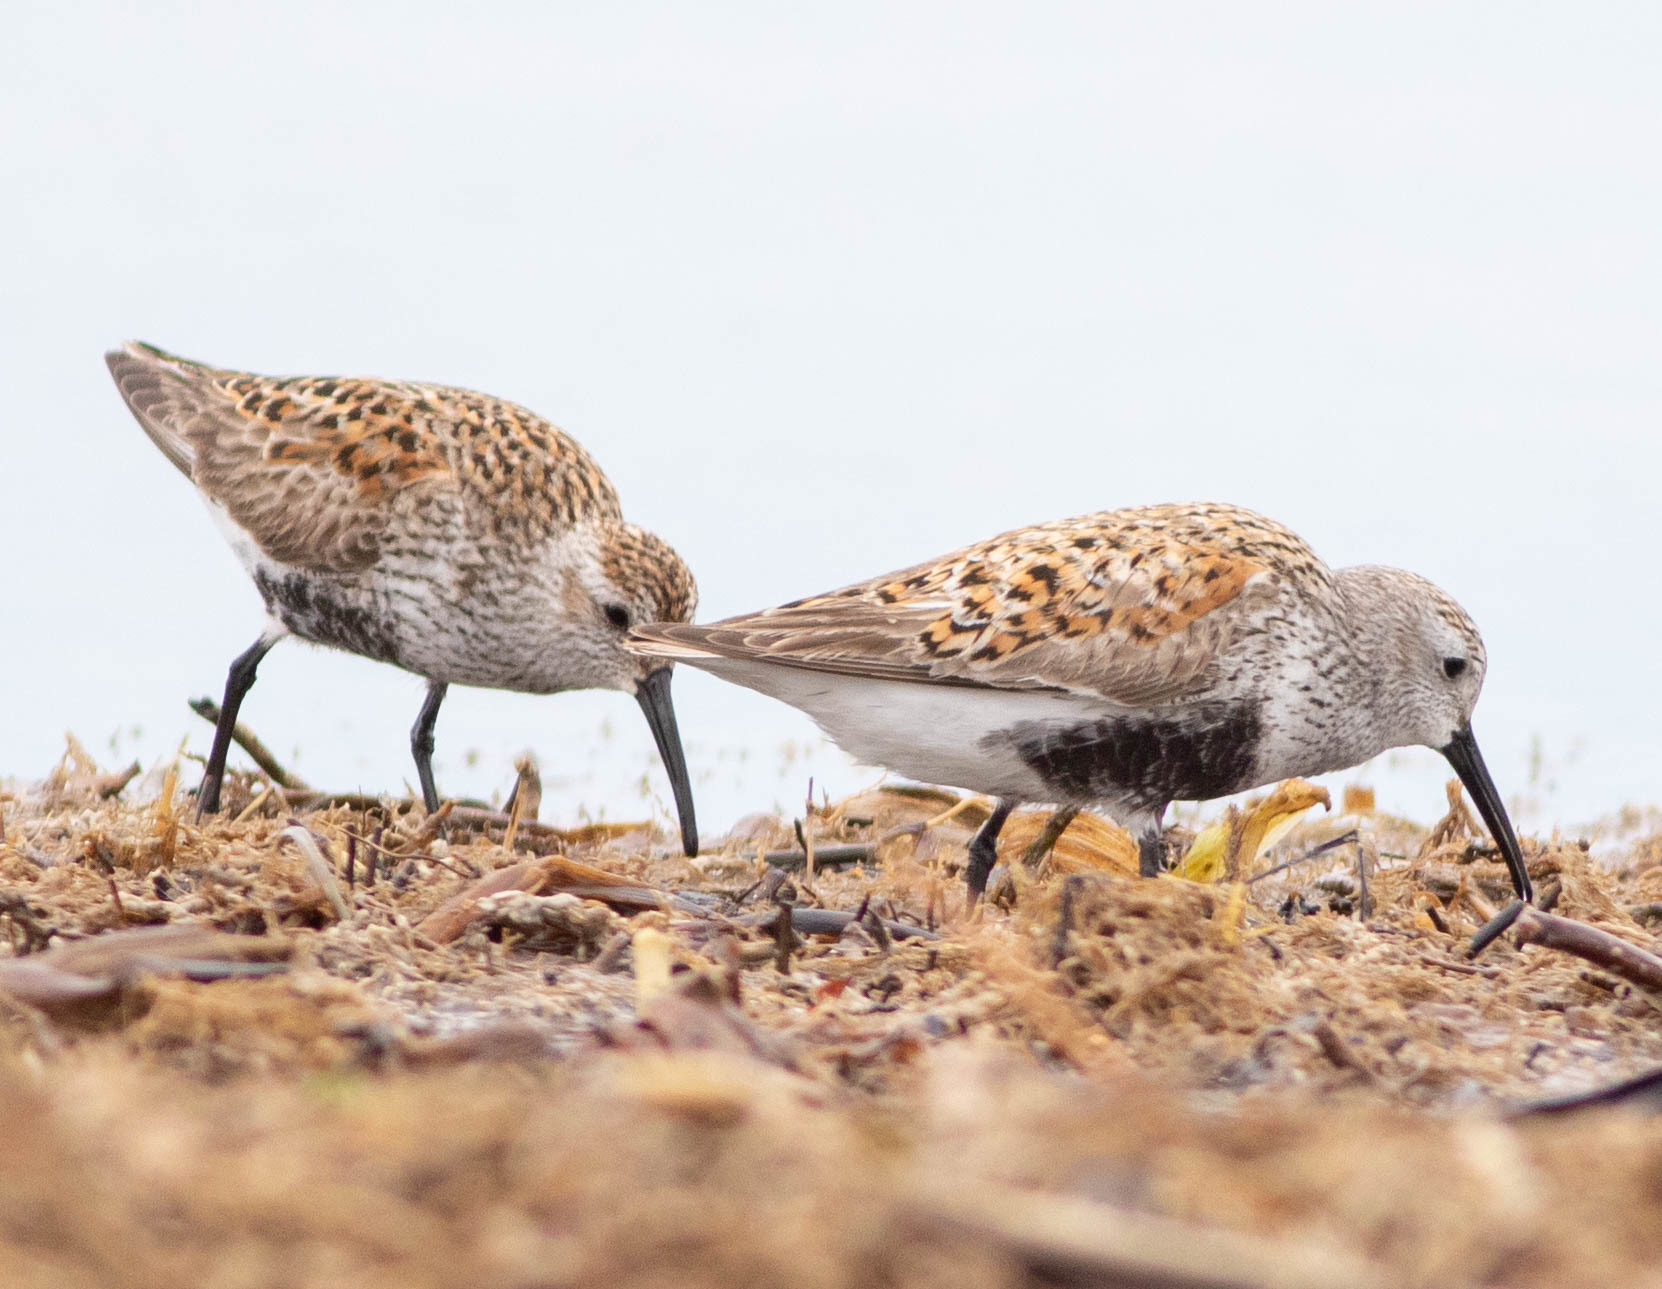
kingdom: Animalia
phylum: Chordata
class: Aves
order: Charadriiformes
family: Scolopacidae
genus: Calidris
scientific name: Calidris alpina
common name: Dunlin
